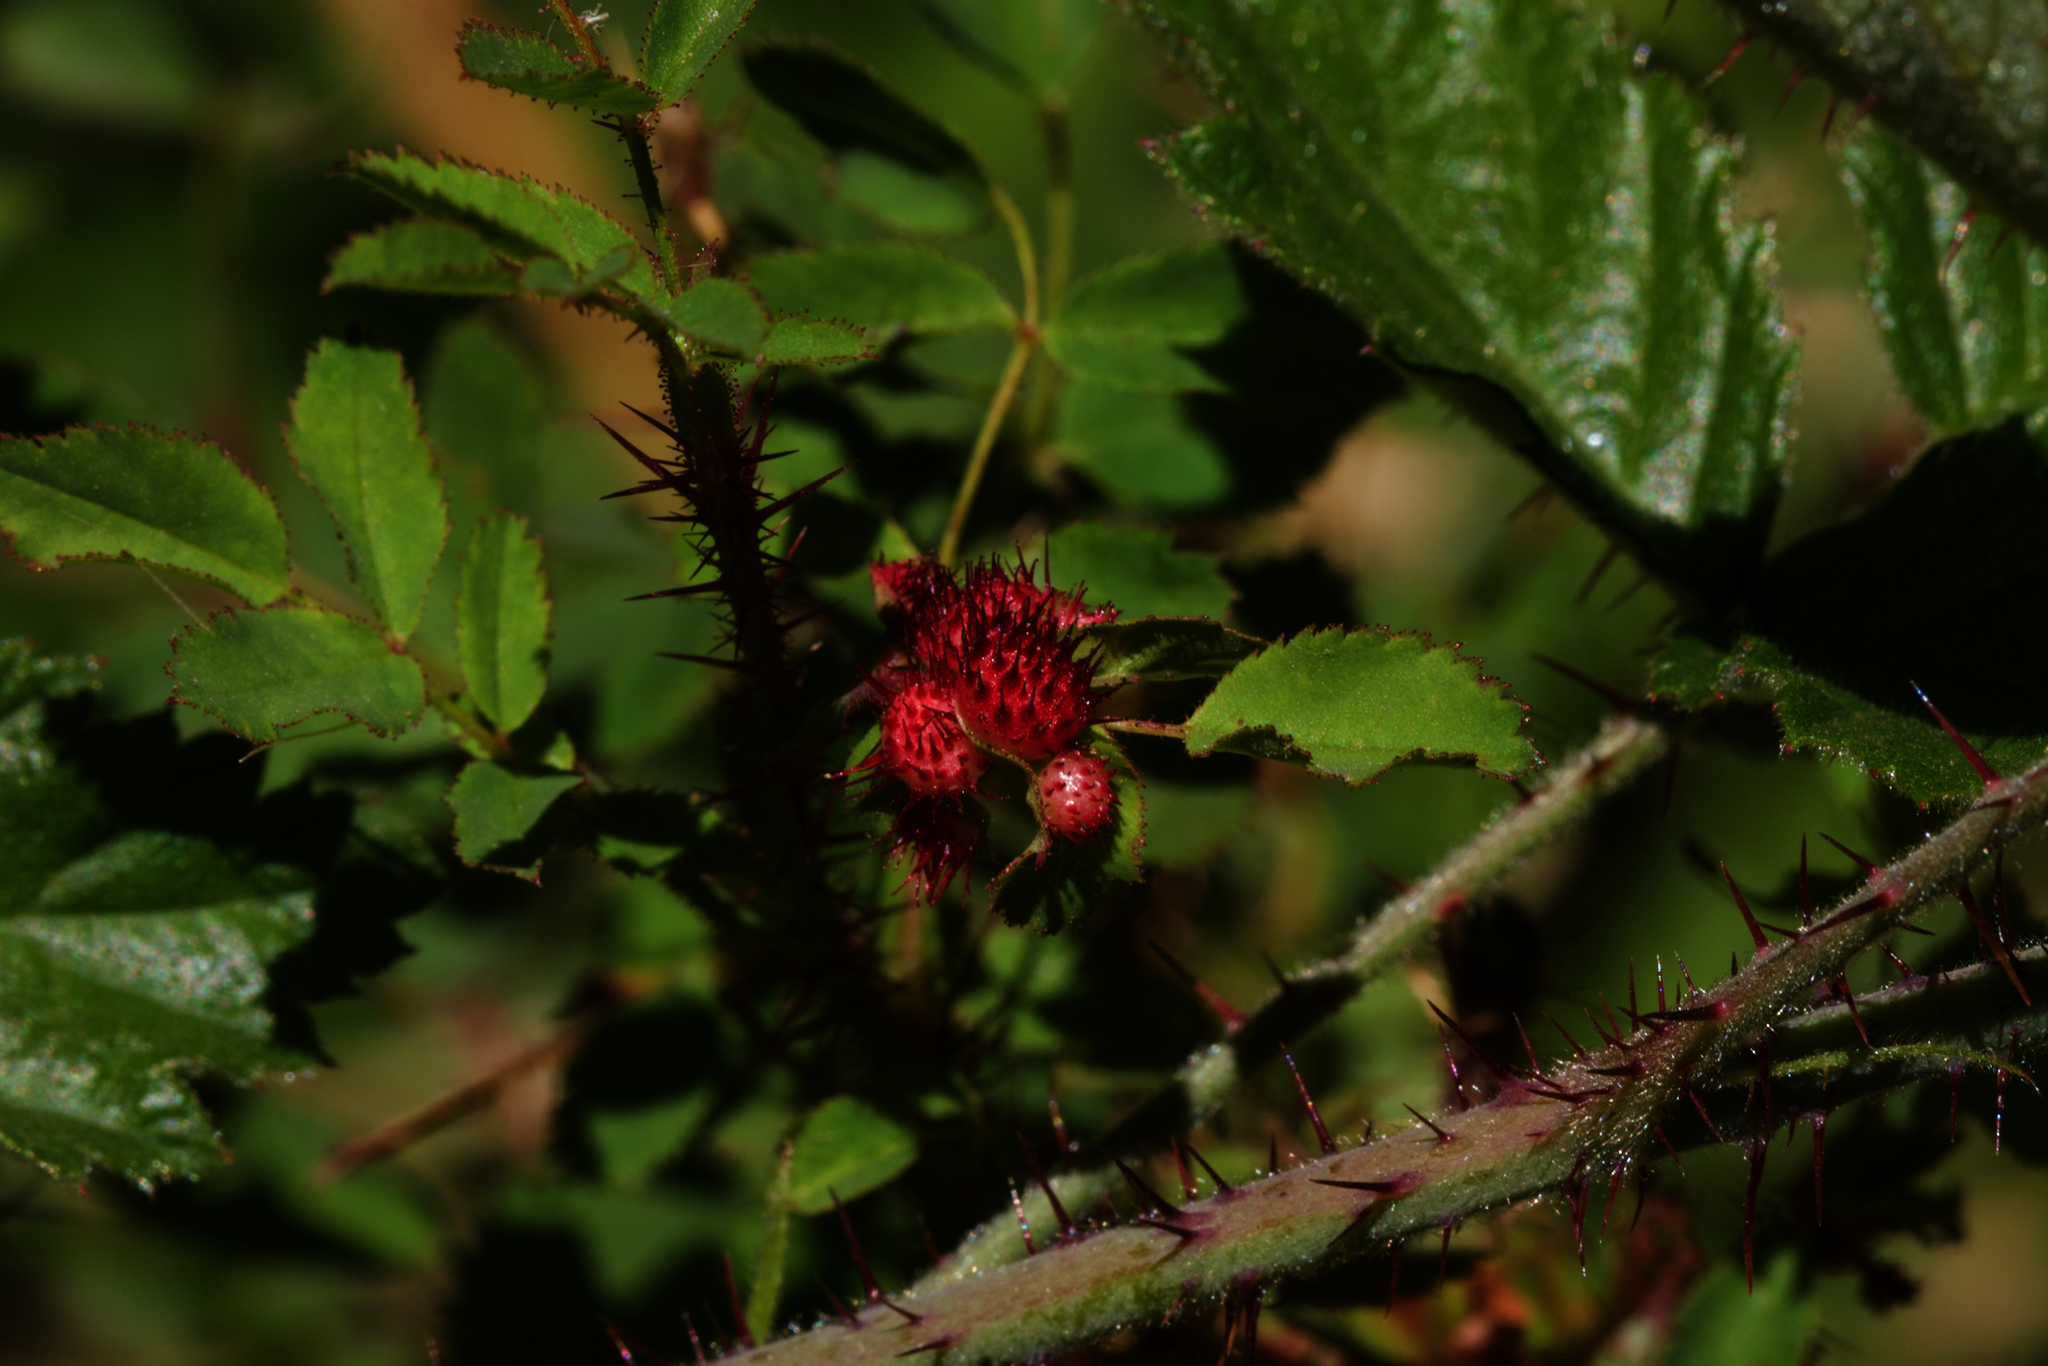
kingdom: Animalia
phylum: Arthropoda
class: Insecta
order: Hymenoptera
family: Cynipidae
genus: Diplolepis
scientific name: Diplolepis polita
